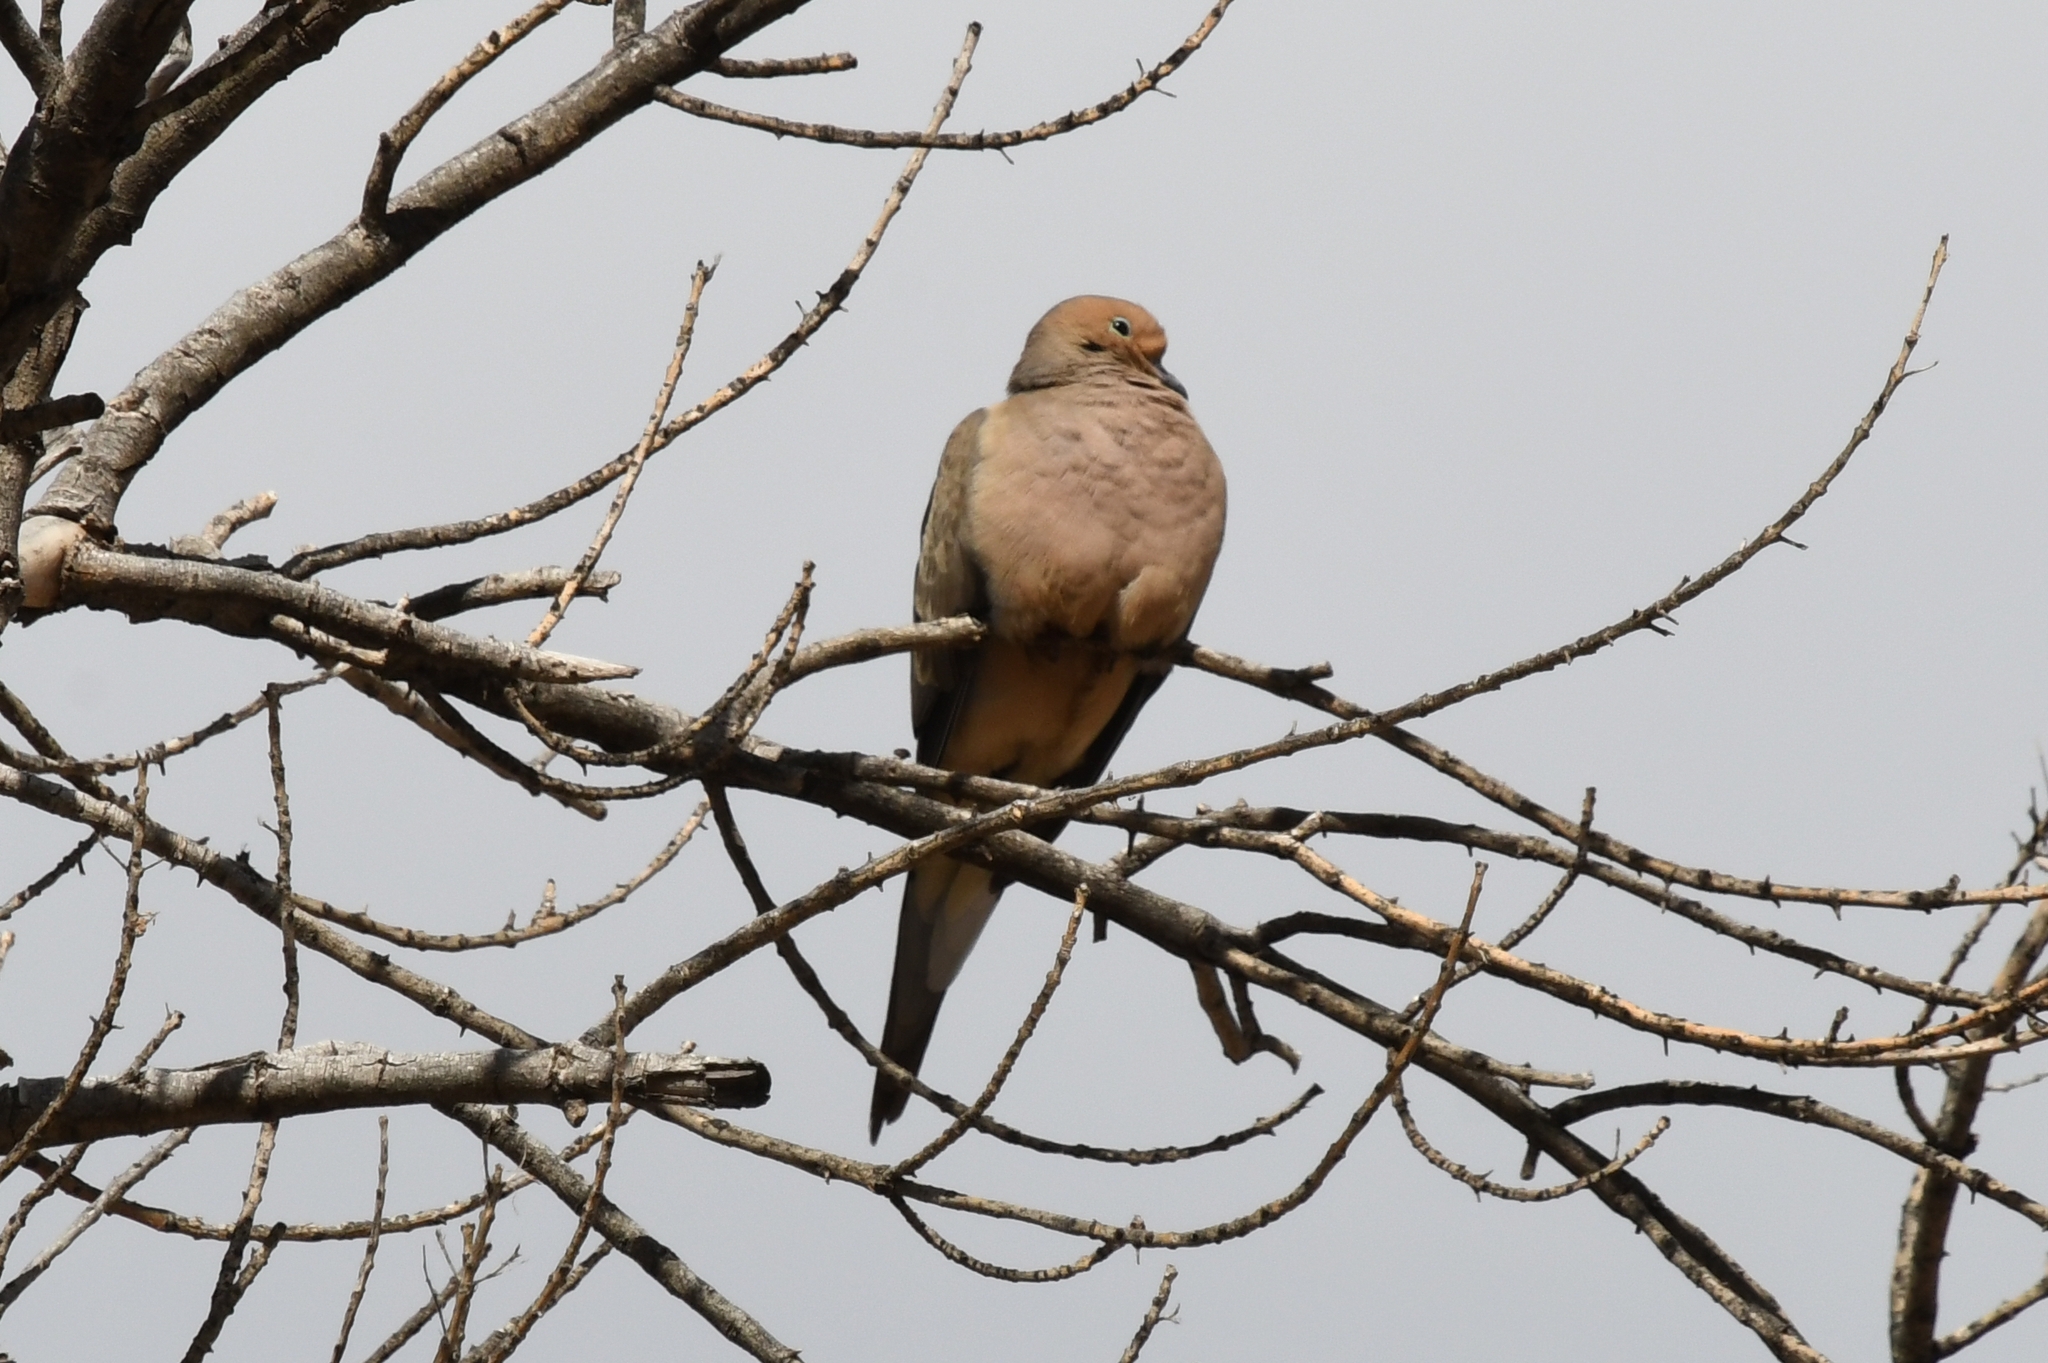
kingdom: Animalia
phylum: Chordata
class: Aves
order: Columbiformes
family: Columbidae
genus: Zenaida
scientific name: Zenaida macroura
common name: Mourning dove
